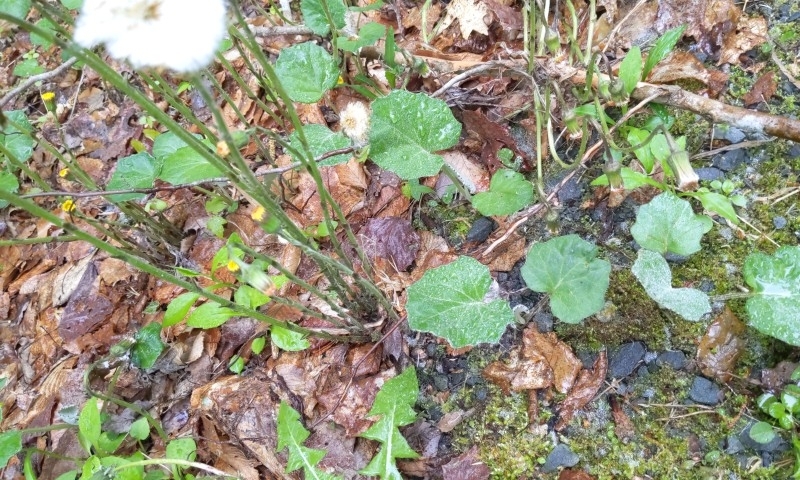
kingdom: Plantae
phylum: Tracheophyta
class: Magnoliopsida
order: Asterales
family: Asteraceae
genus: Tussilago
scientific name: Tussilago farfara
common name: Coltsfoot
